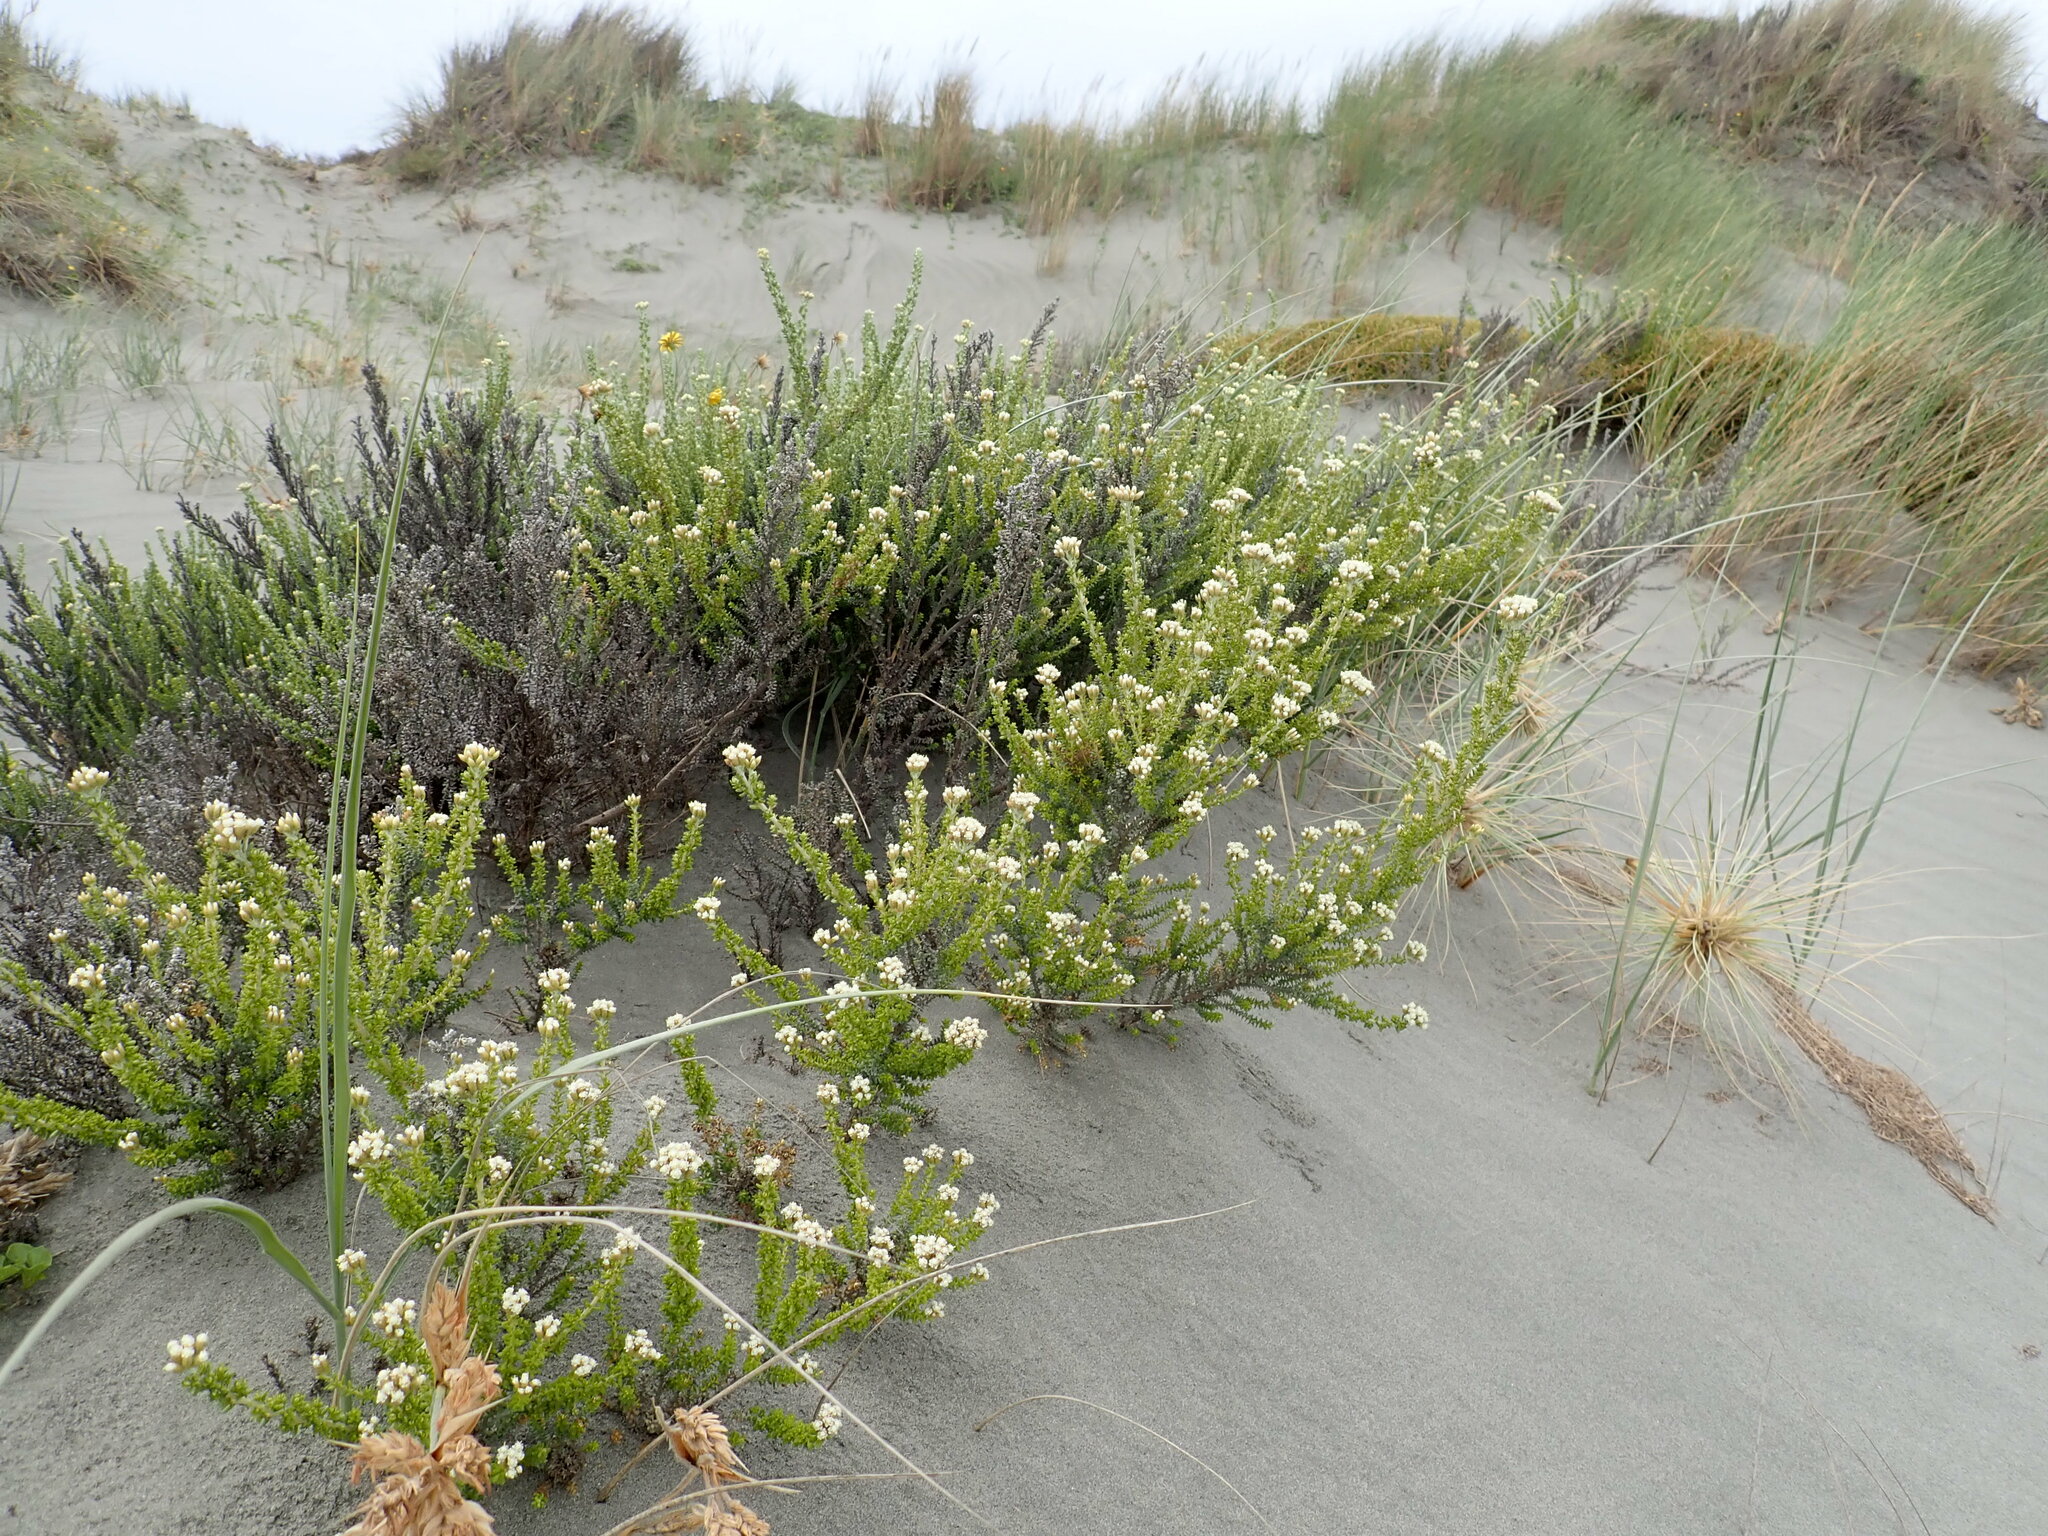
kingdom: Plantae
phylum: Tracheophyta
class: Magnoliopsida
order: Asterales
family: Asteraceae
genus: Ozothamnus
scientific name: Ozothamnus leptophyllus
